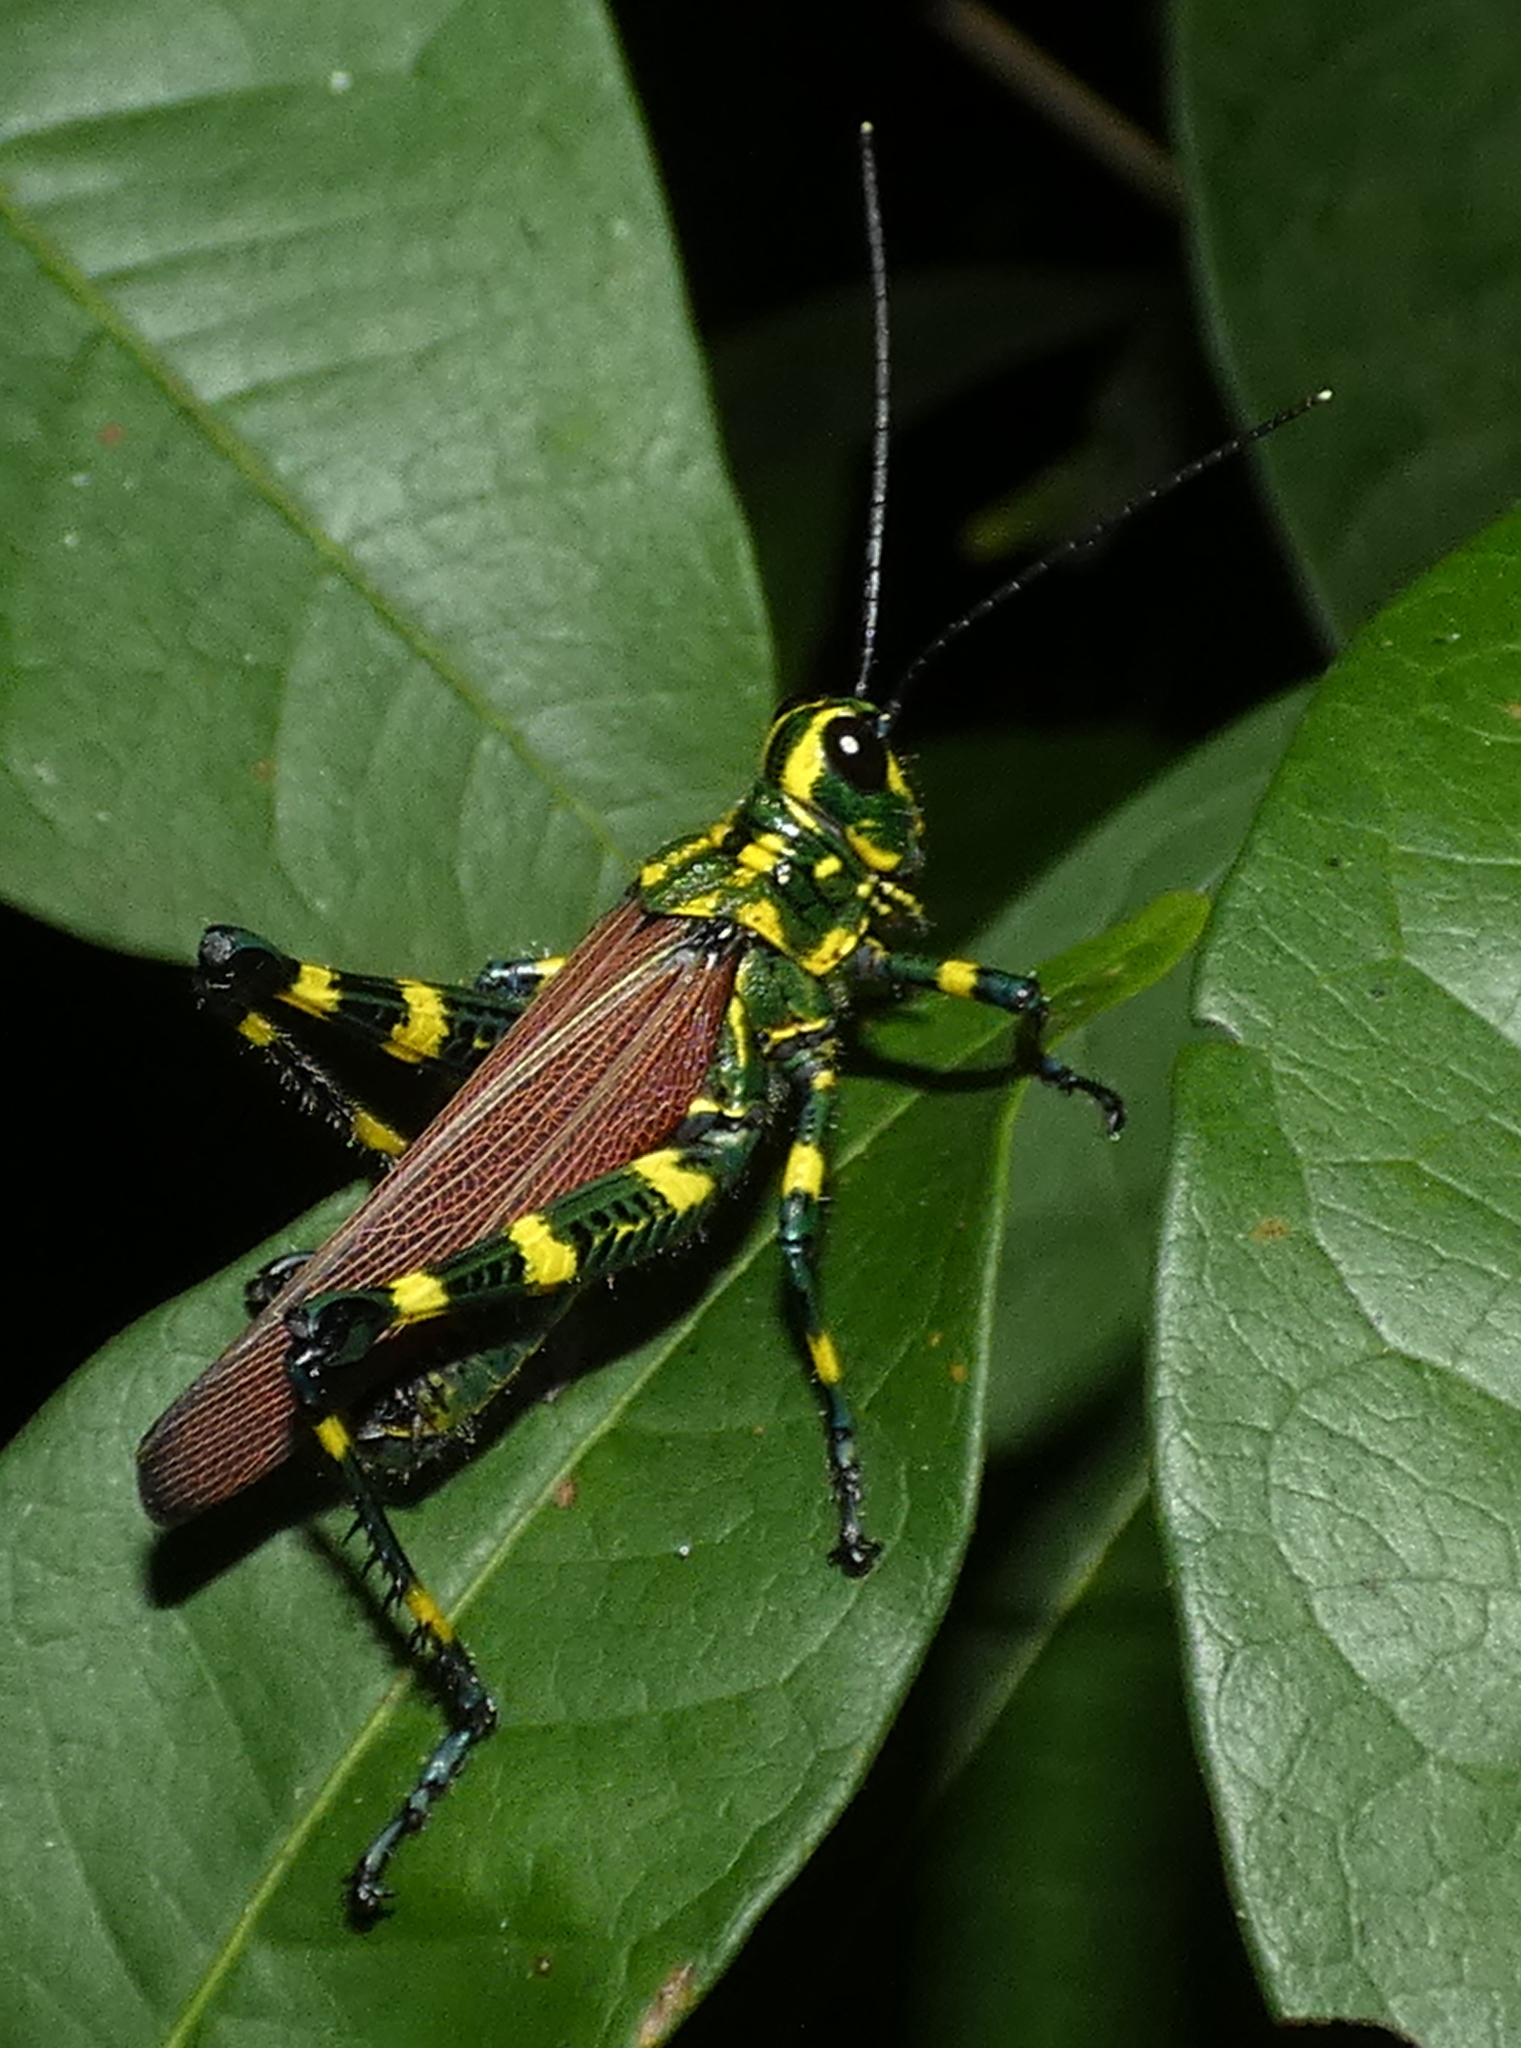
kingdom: Animalia
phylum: Arthropoda
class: Insecta
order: Orthoptera
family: Romaleidae
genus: Chromacris
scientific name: Chromacris speciosa
